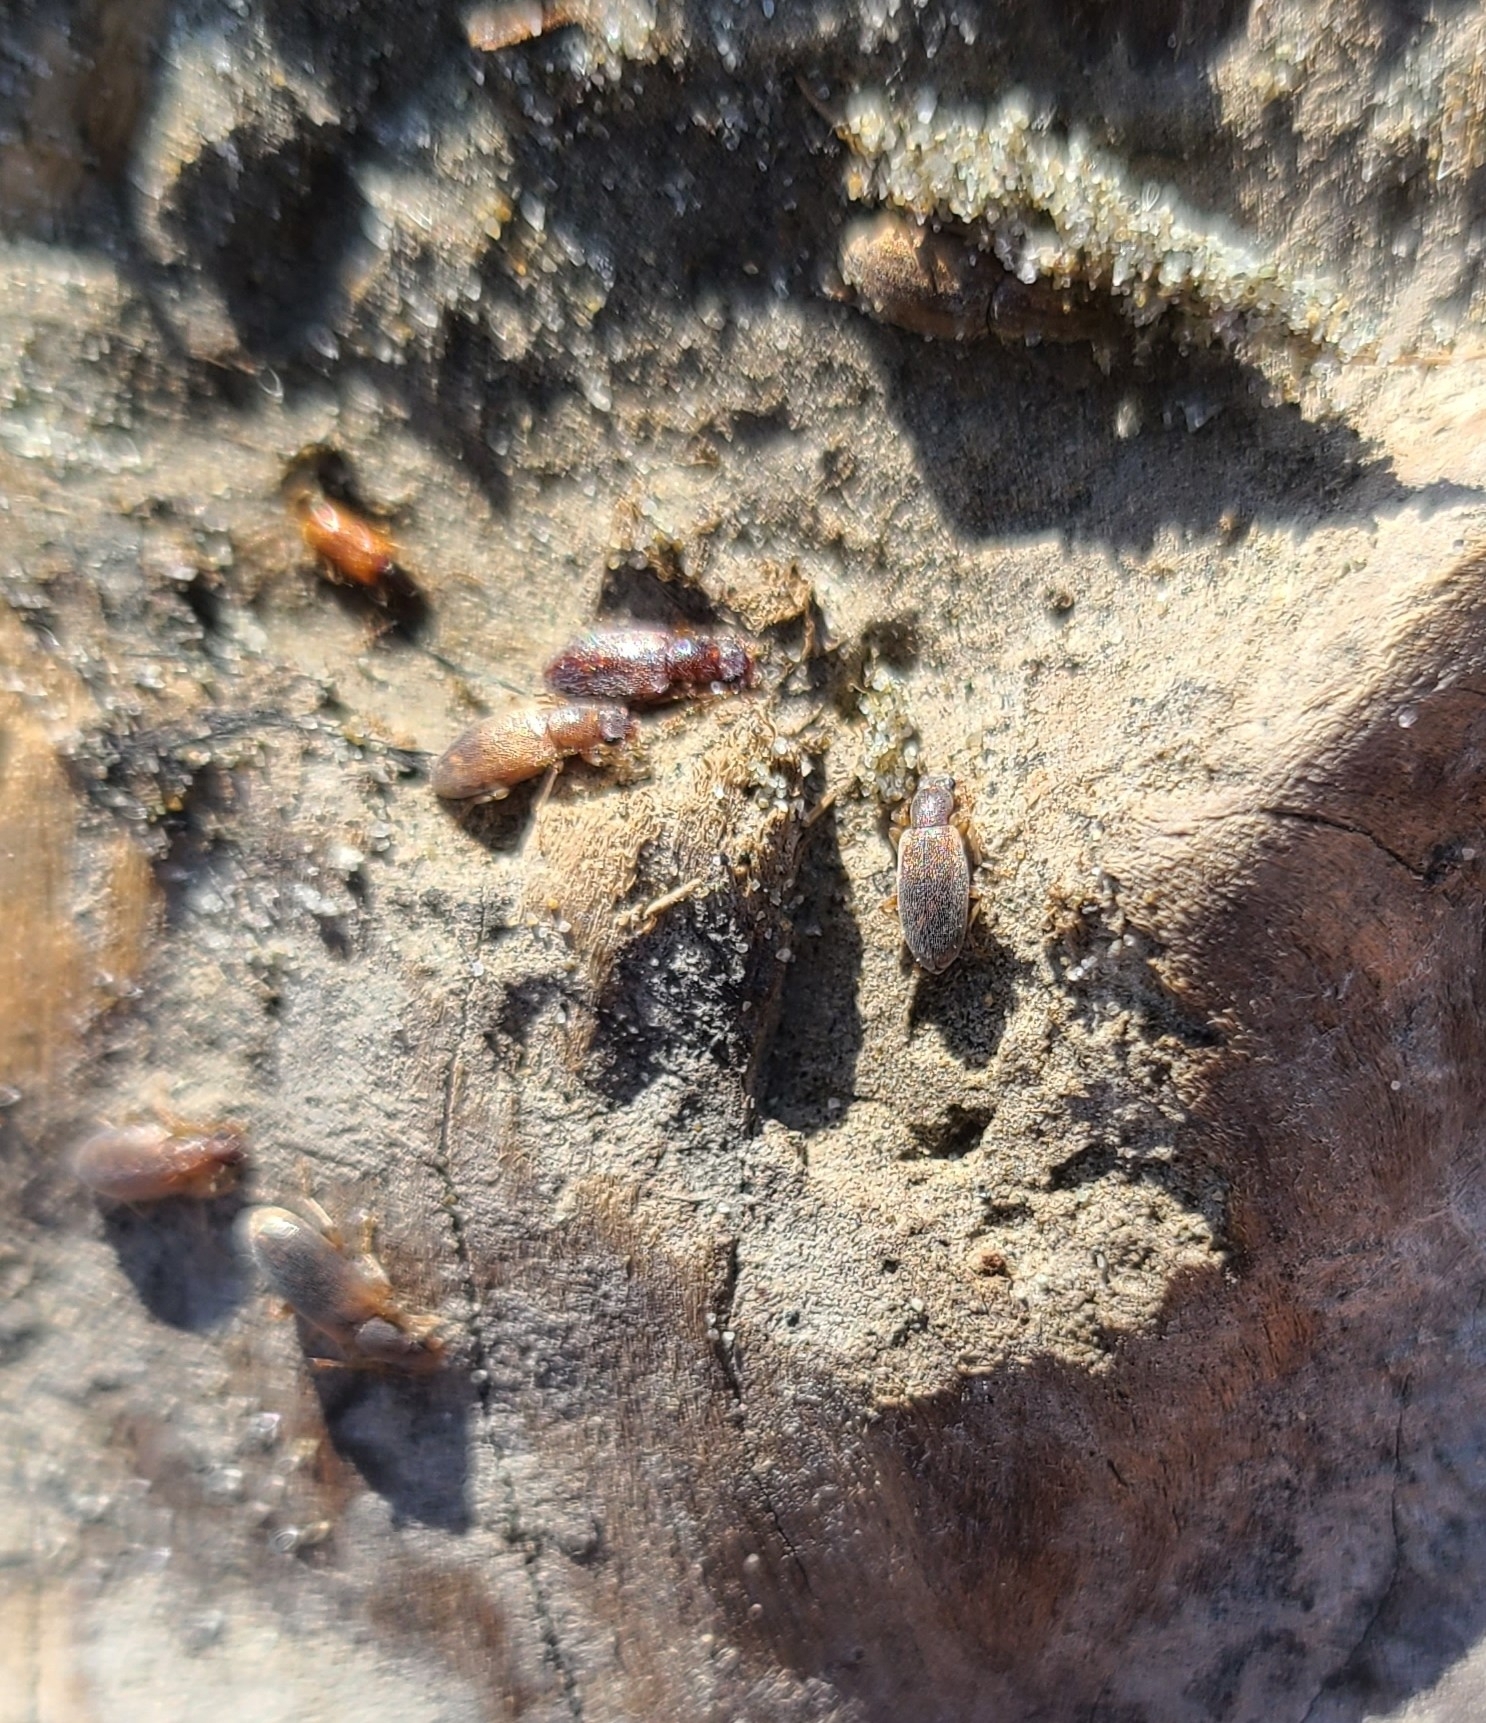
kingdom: Animalia
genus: Lagrioda
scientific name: Lagrioda brounii
